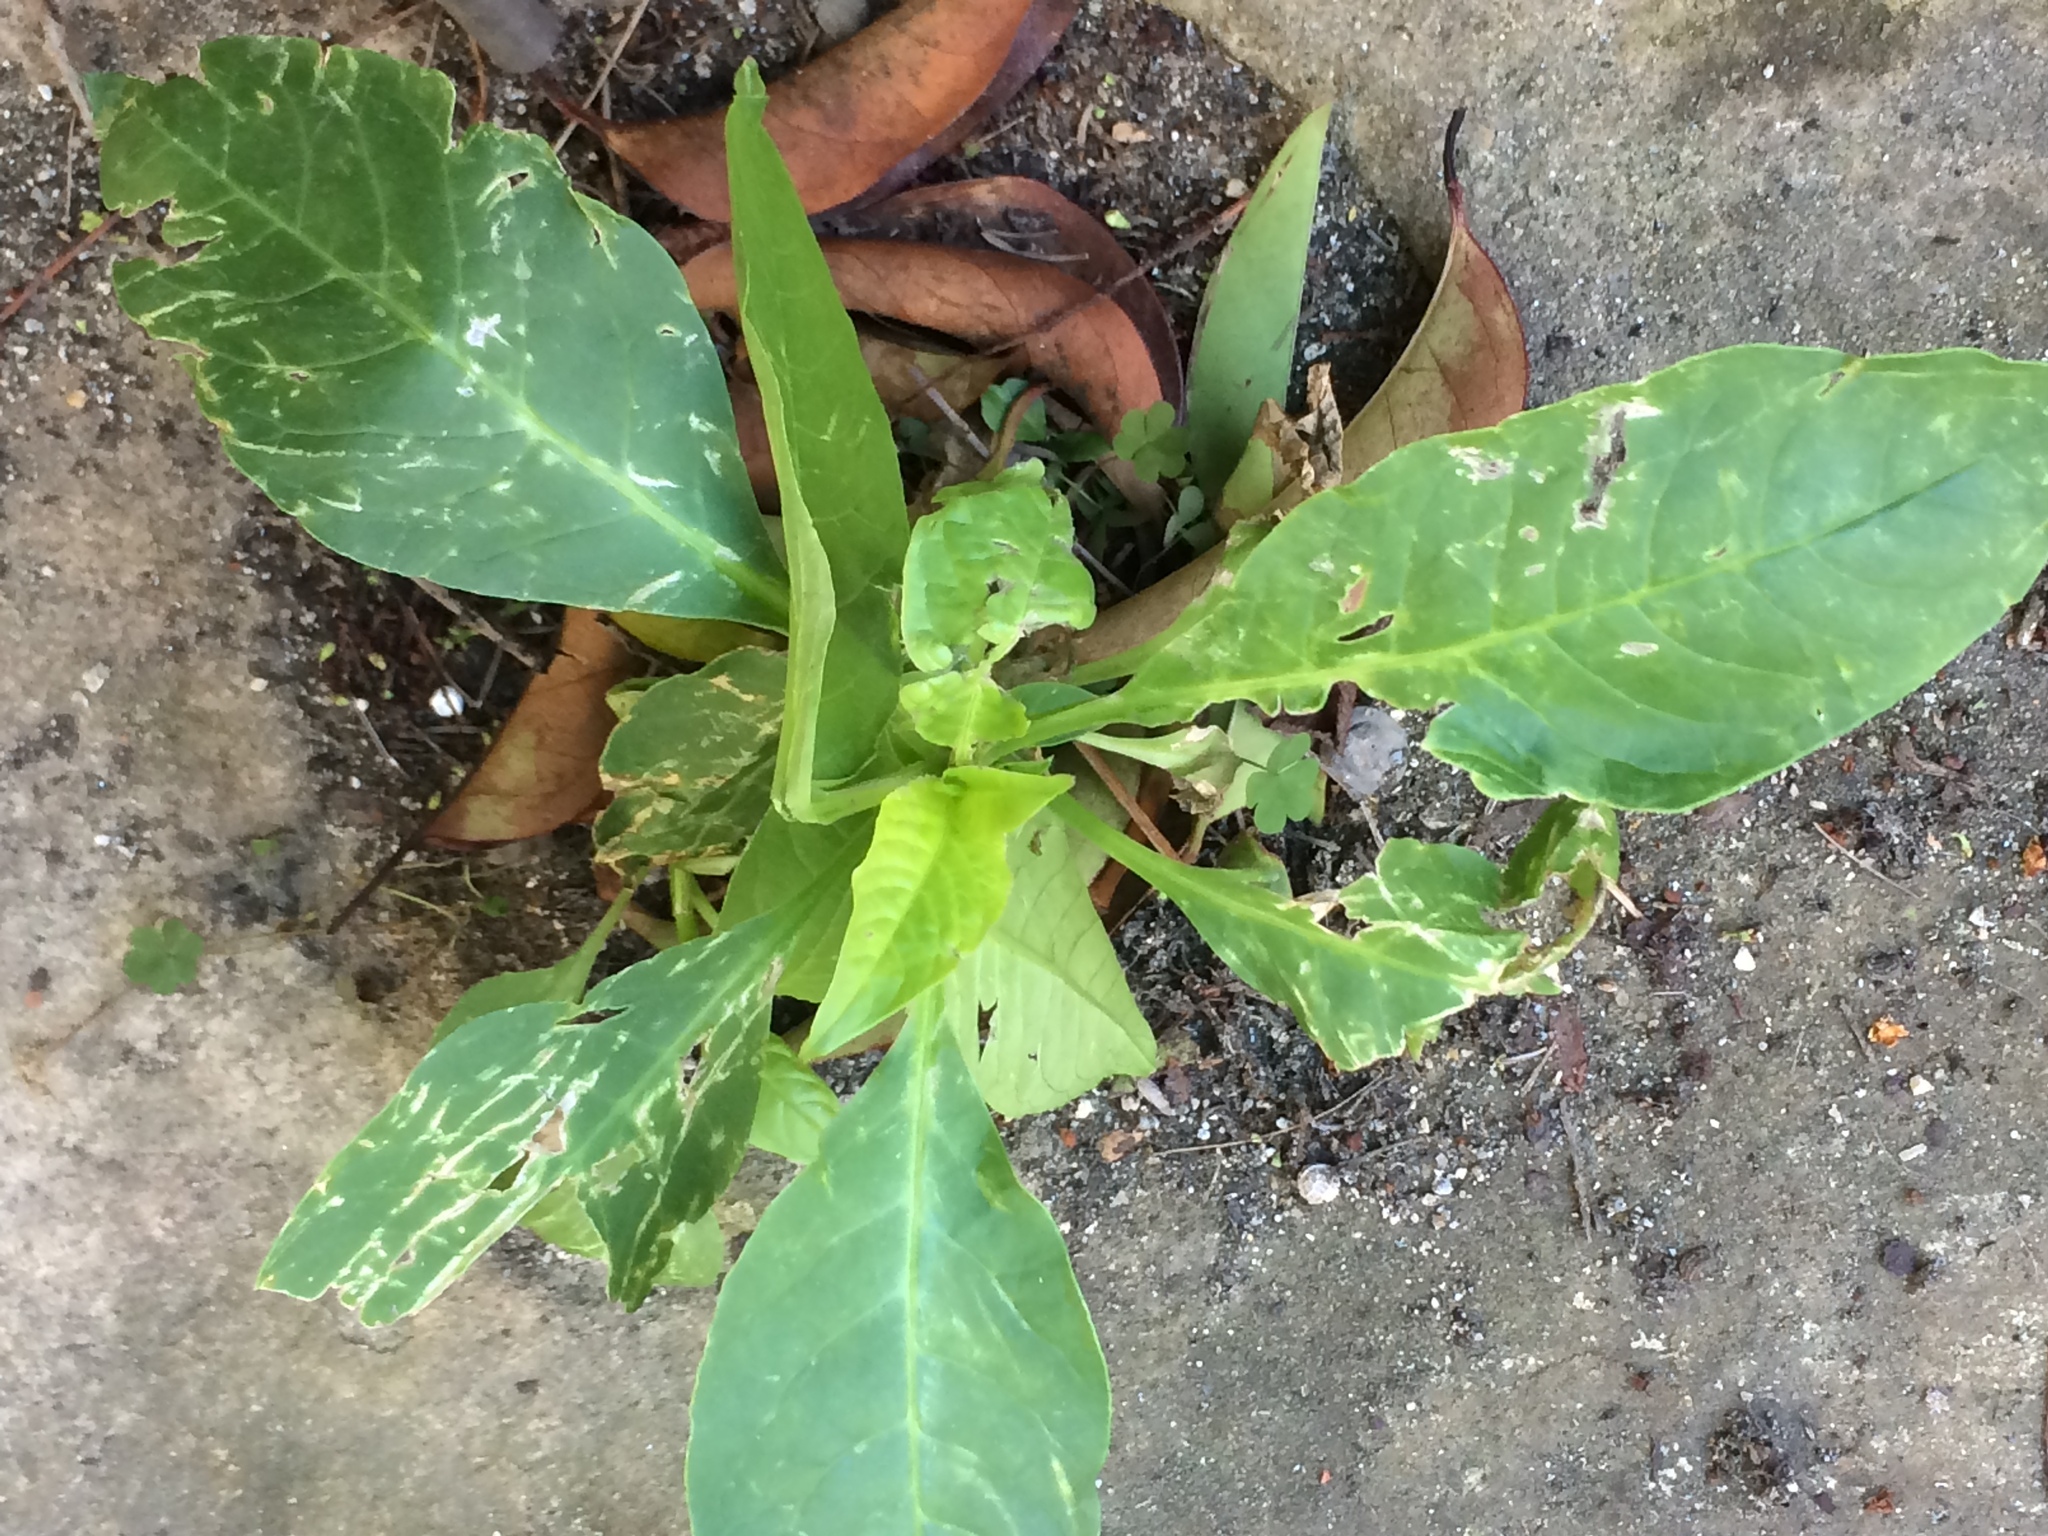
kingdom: Plantae
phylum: Tracheophyta
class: Magnoliopsida
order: Caryophyllales
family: Phytolaccaceae
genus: Phytolacca
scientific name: Phytolacca heterotepala
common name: Mexican pokeweed
